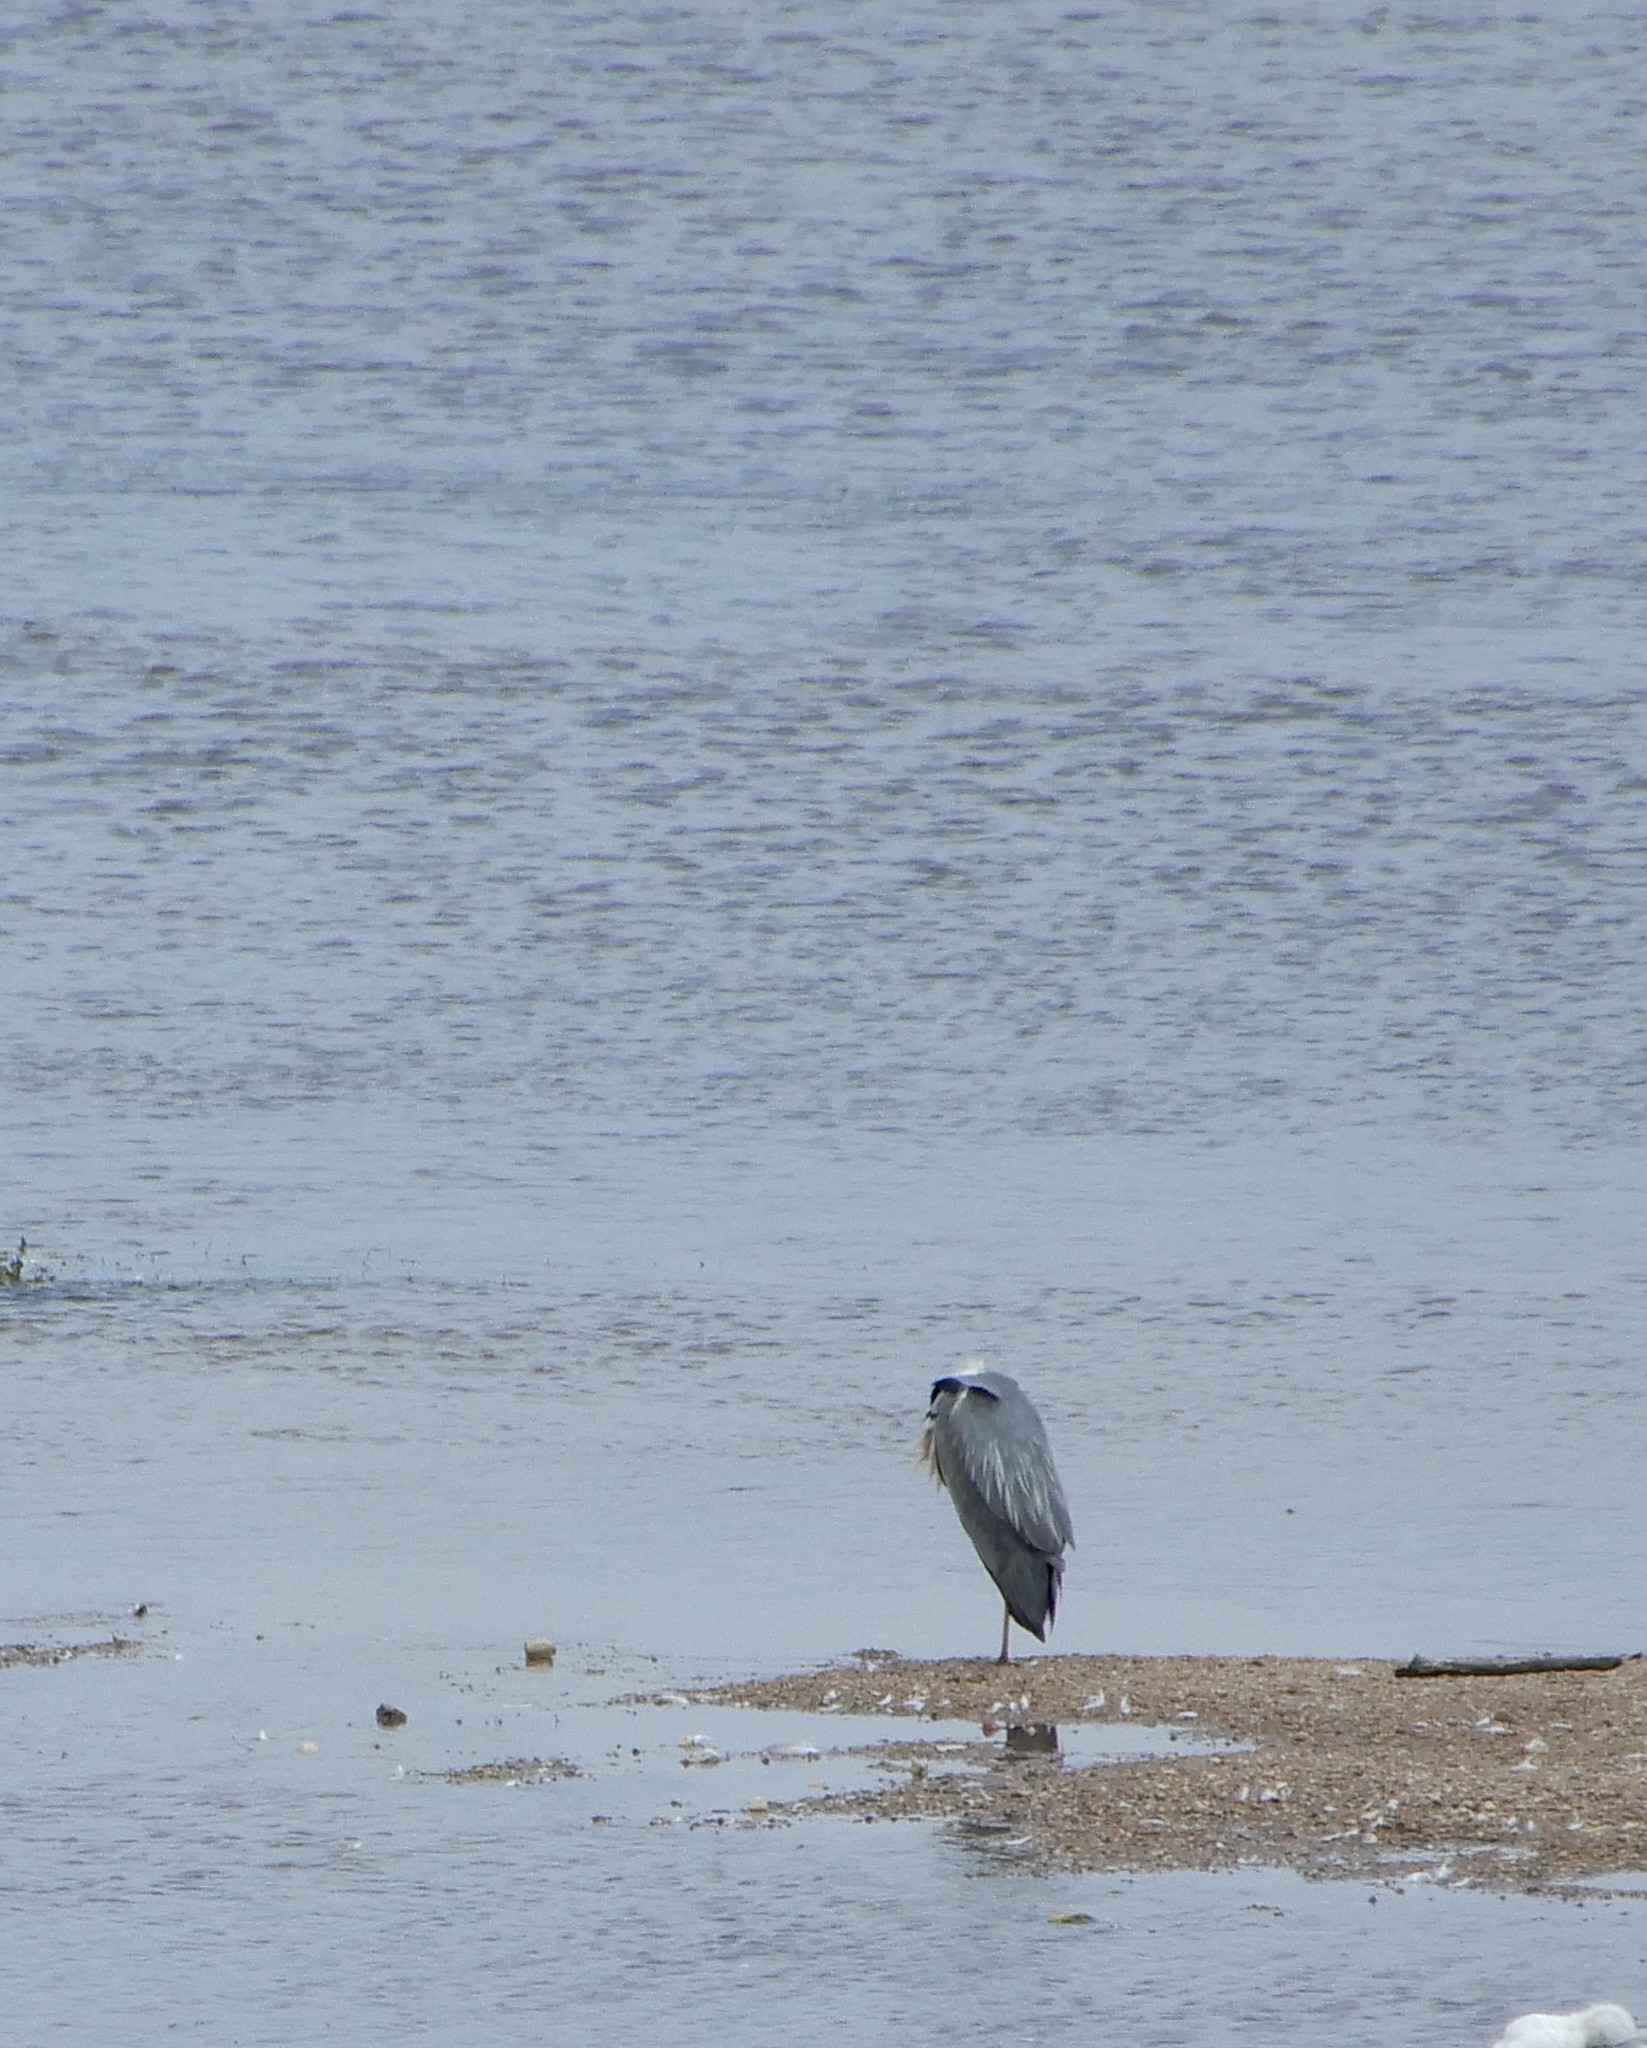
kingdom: Animalia
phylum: Chordata
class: Aves
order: Pelecaniformes
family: Ardeidae
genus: Ardea
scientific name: Ardea cinerea
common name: Grey heron
